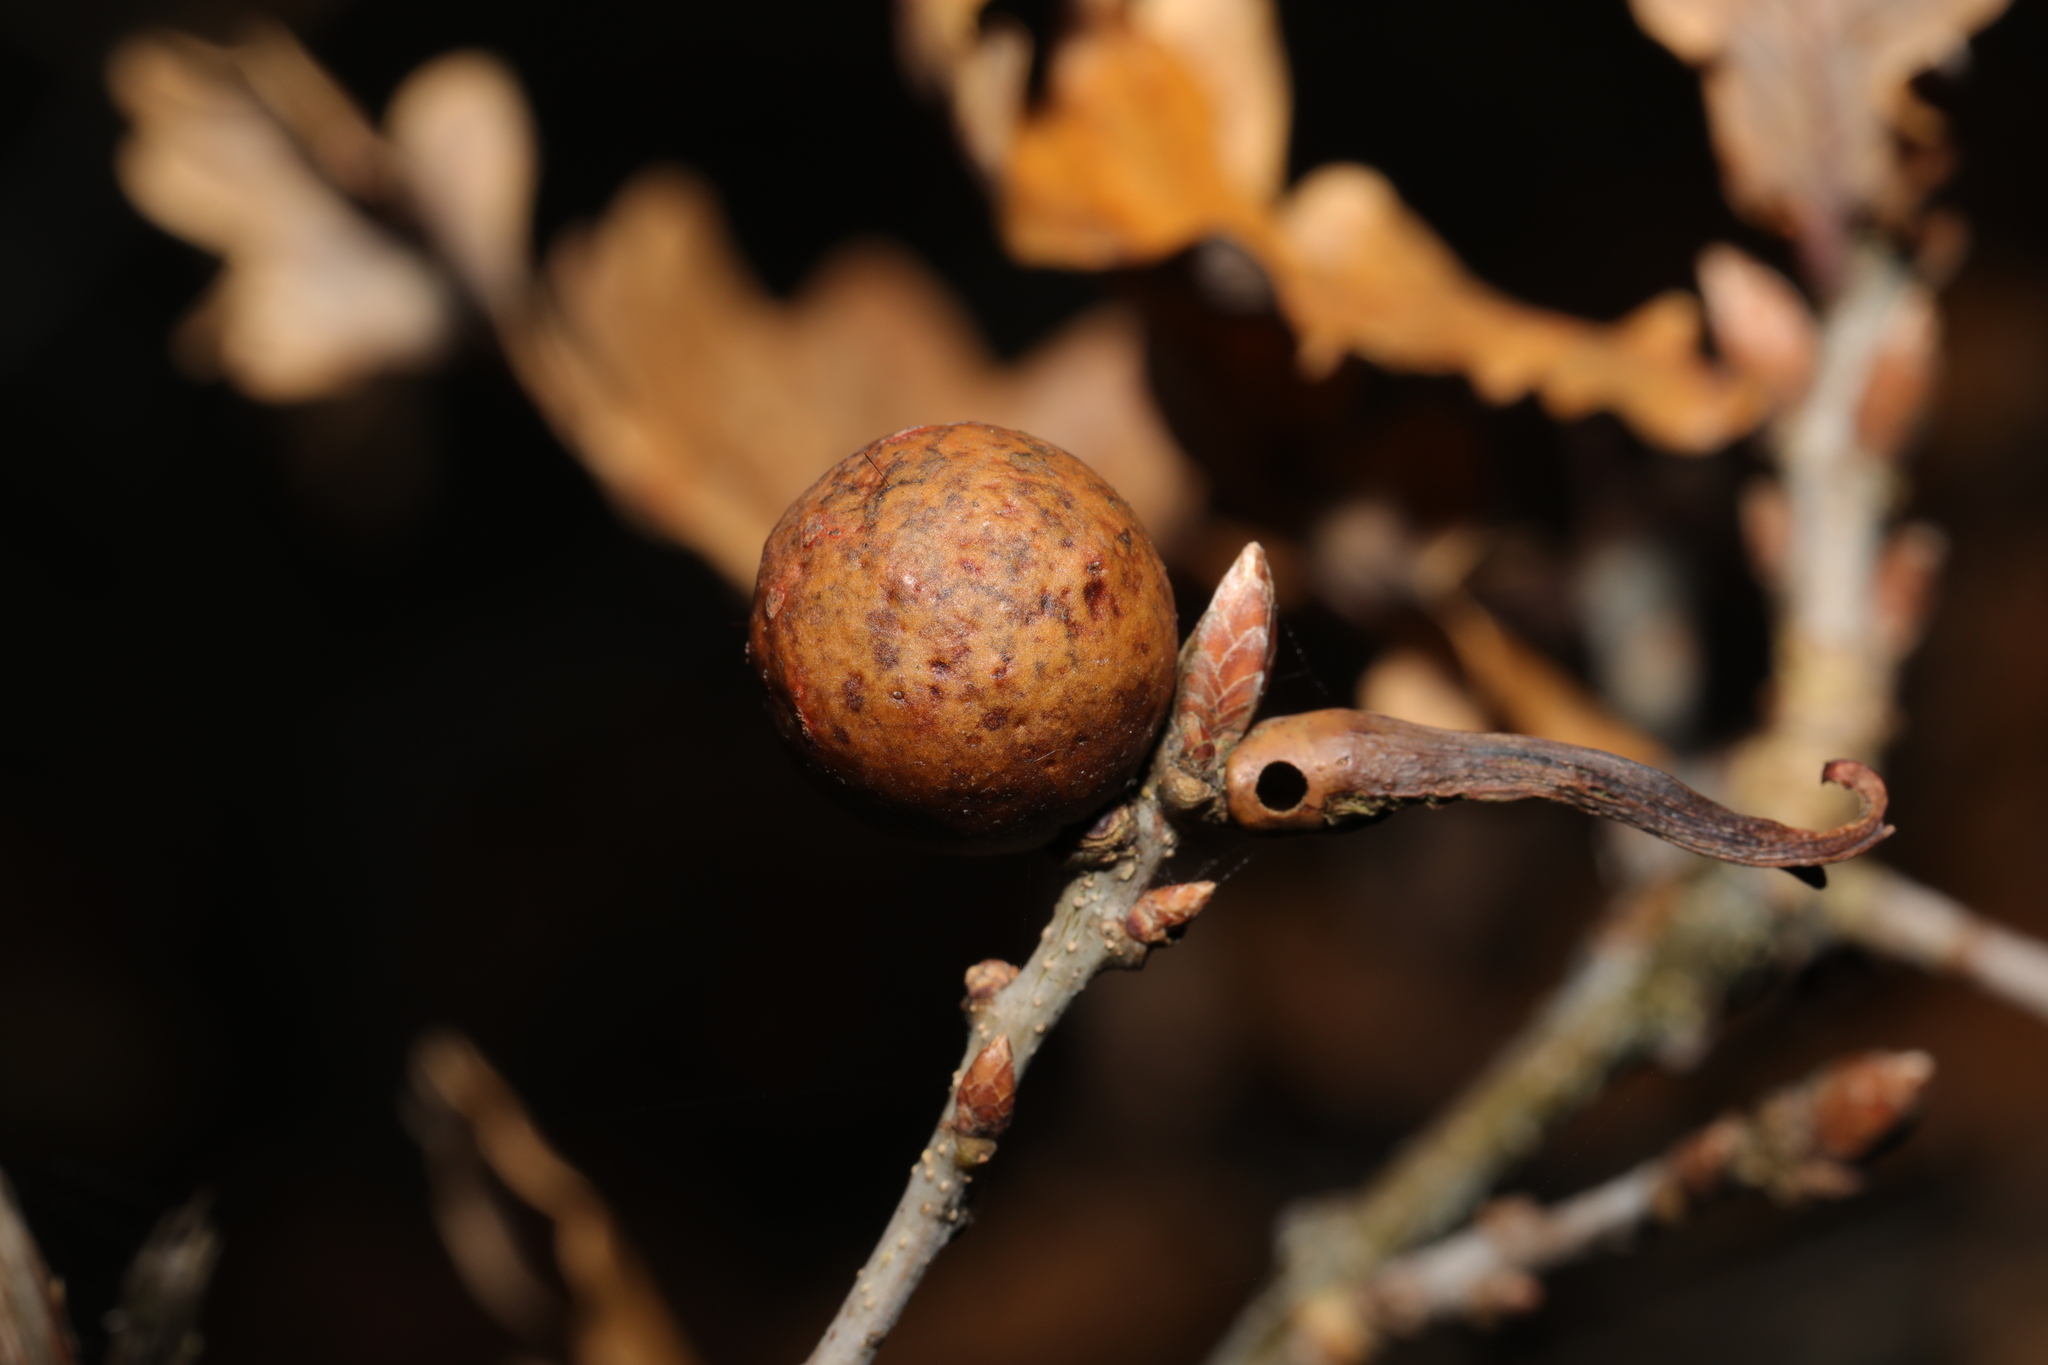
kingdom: Animalia
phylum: Arthropoda
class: Insecta
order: Hymenoptera
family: Cynipidae
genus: Andricus
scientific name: Andricus kollari
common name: Marble gall
